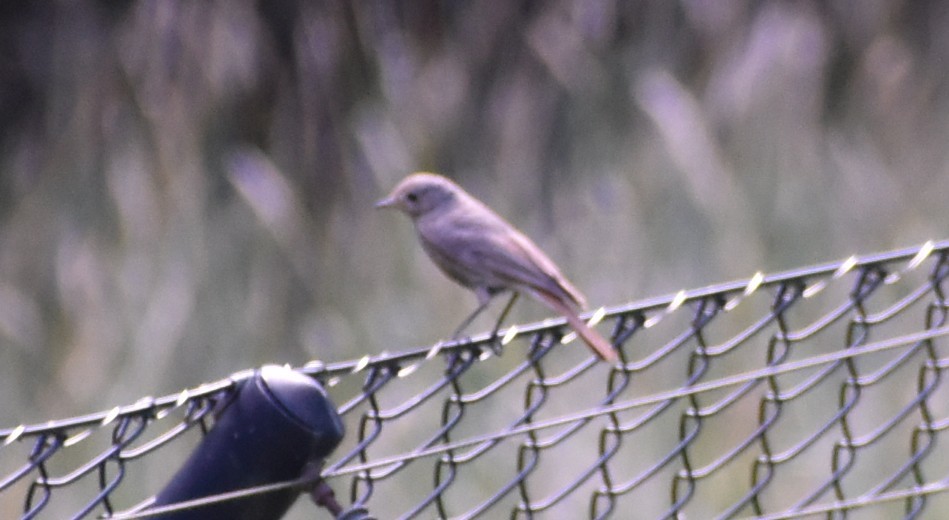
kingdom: Animalia
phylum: Chordata
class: Aves
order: Passeriformes
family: Muscicapidae
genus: Phoenicurus
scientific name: Phoenicurus ochruros
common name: Black redstart
